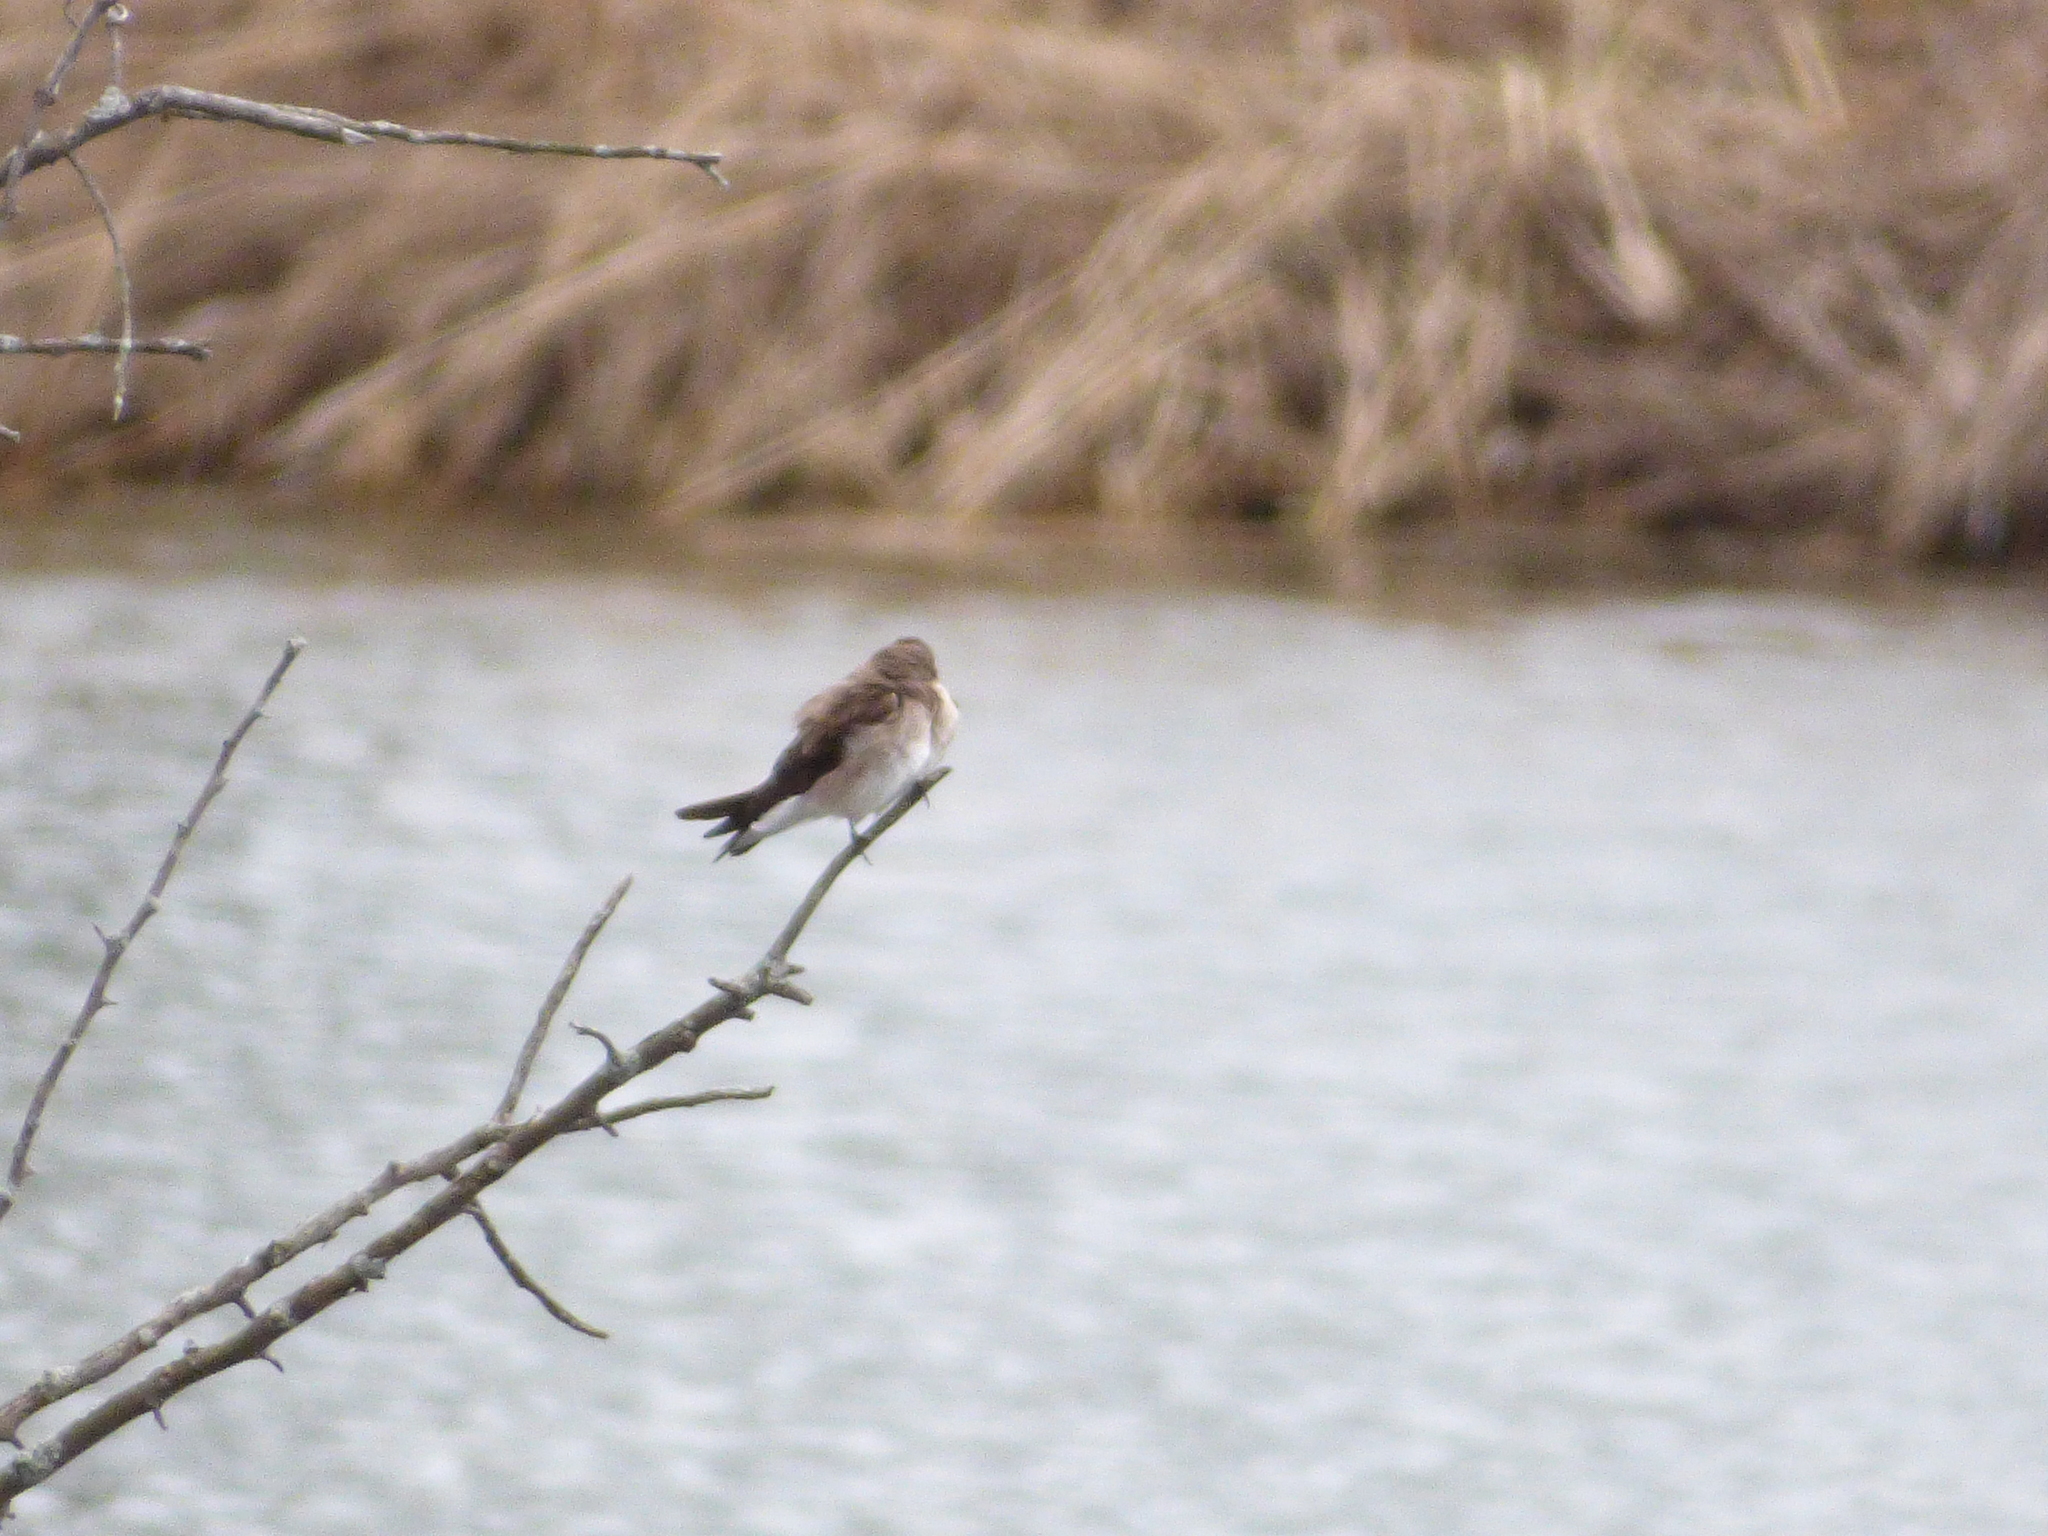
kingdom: Animalia
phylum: Chordata
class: Aves
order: Passeriformes
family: Hirundinidae
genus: Stelgidopteryx
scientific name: Stelgidopteryx serripennis
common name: Northern rough-winged swallow
